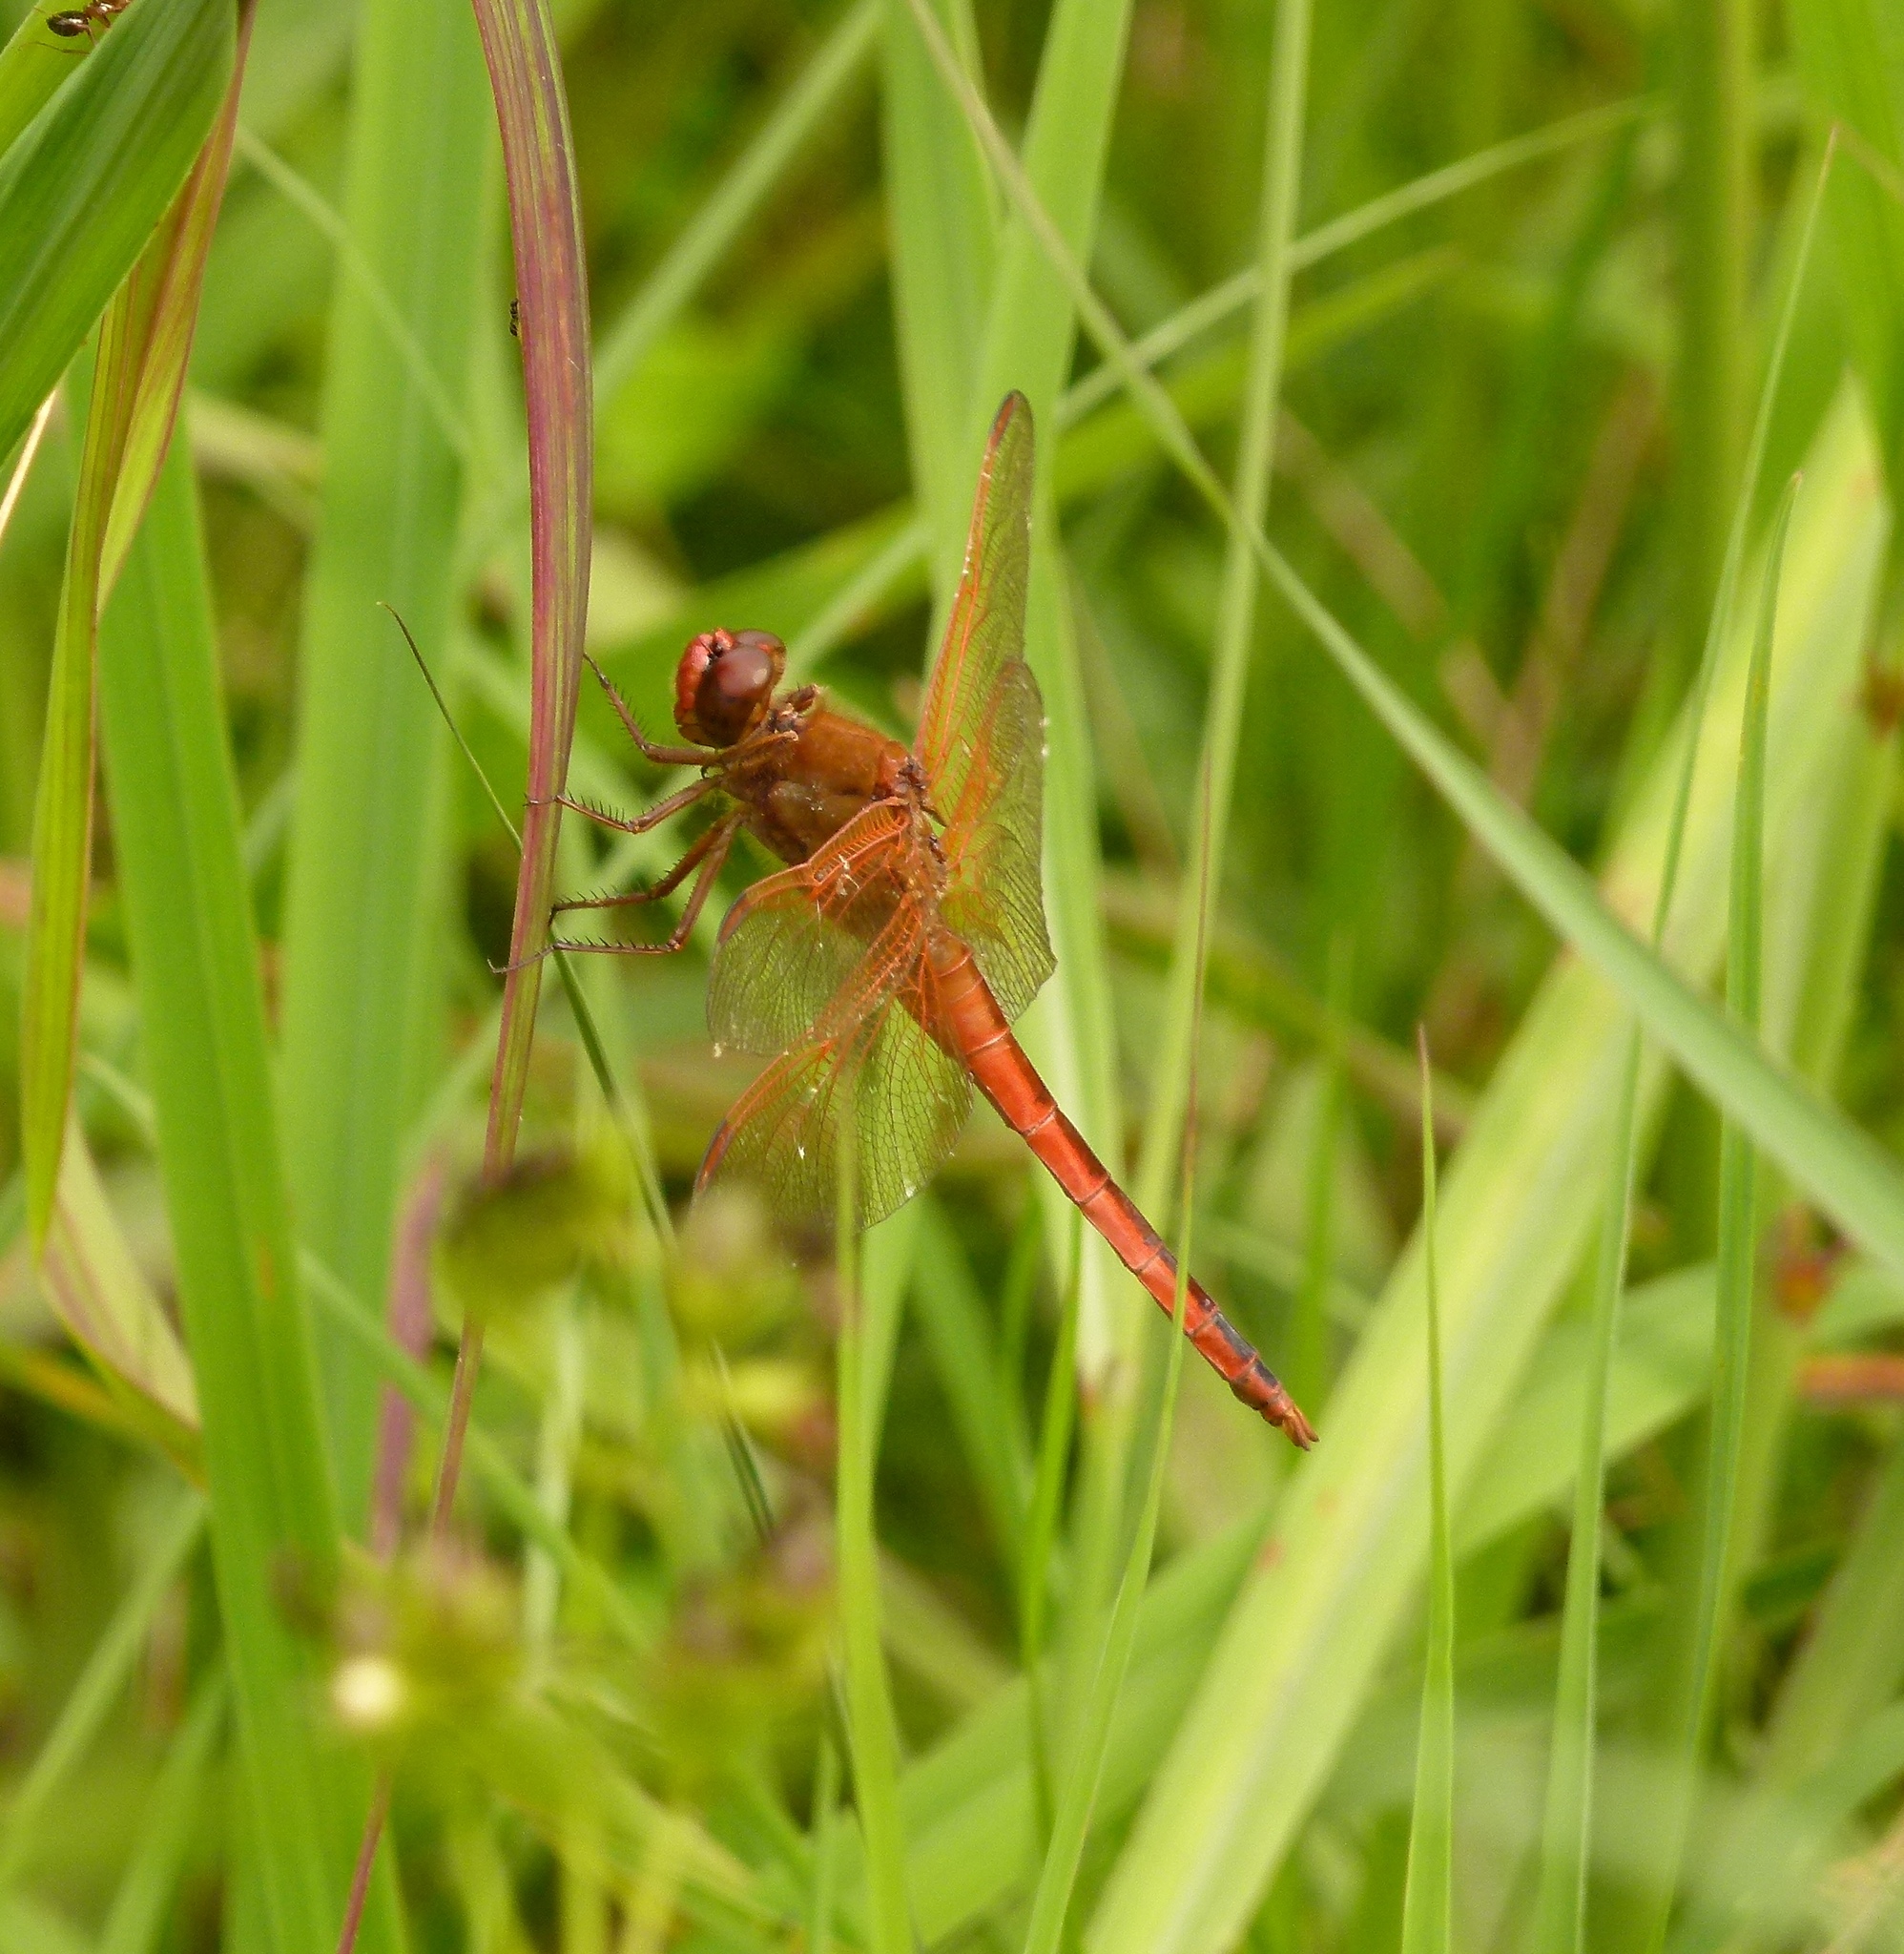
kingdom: Animalia
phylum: Arthropoda
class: Insecta
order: Odonata
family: Libellulidae
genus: Libellula
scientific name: Libellula needhami
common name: Needham's skimmer
